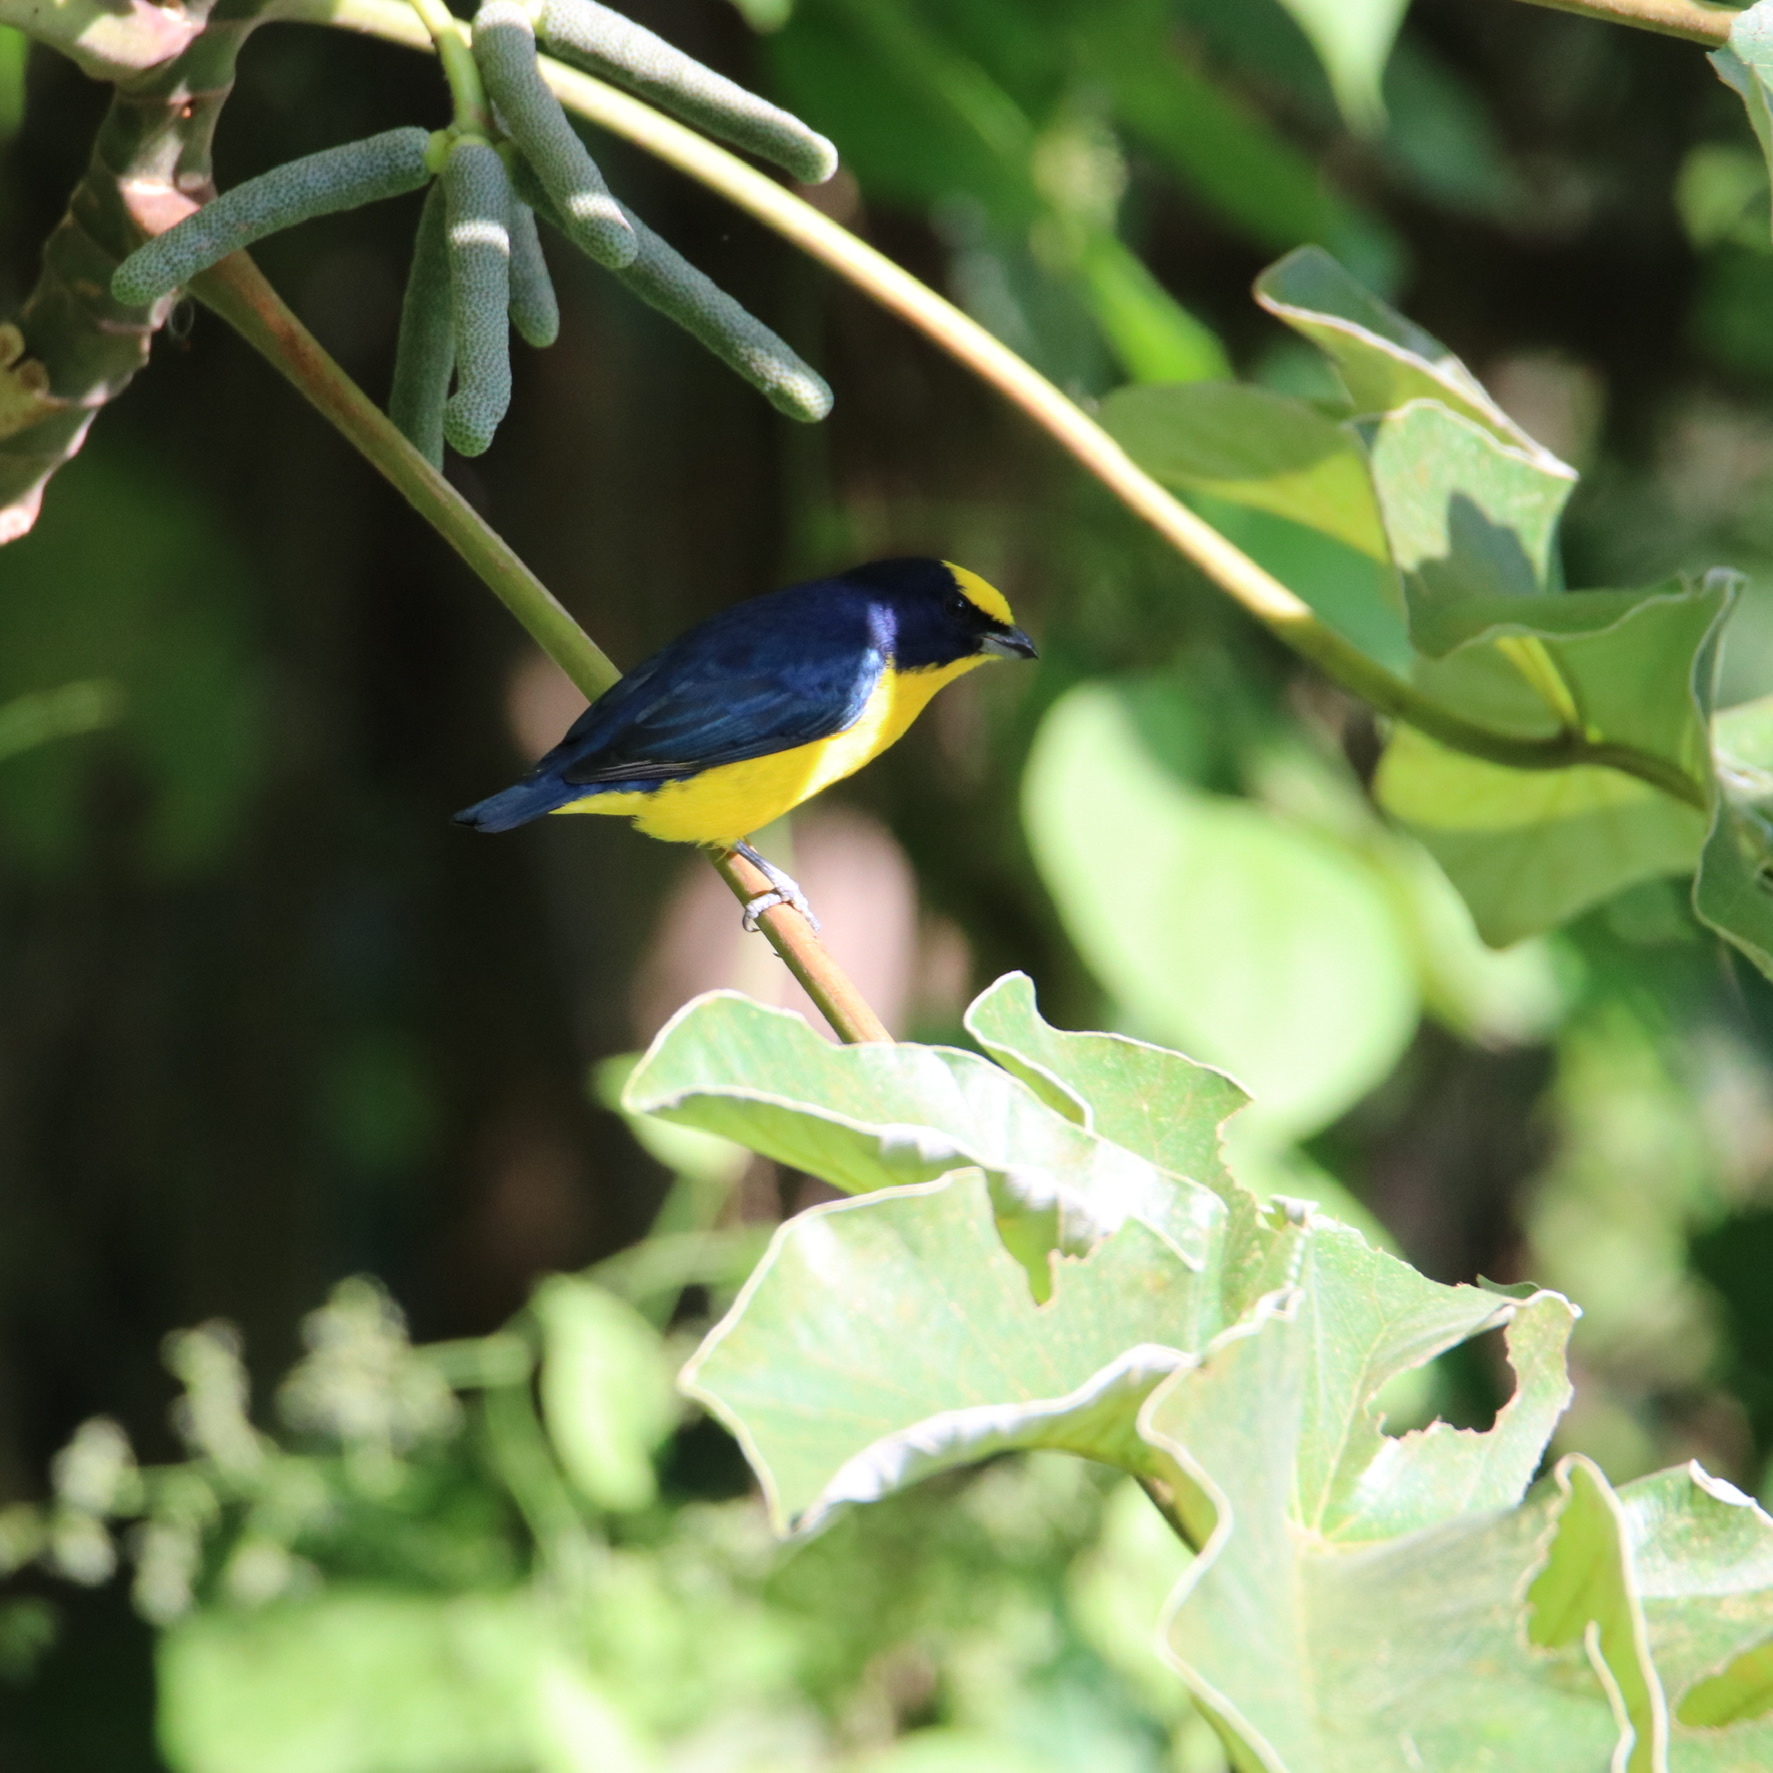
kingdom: Animalia
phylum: Chordata
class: Aves
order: Passeriformes
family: Fringillidae
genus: Euphonia
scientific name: Euphonia laniirostris
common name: Thick-billed euphonia
